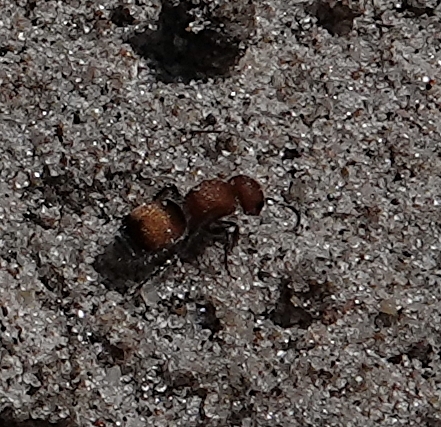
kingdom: Animalia
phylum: Arthropoda
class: Insecta
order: Hymenoptera
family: Mutillidae
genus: Pseudomethoca
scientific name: Pseudomethoca
